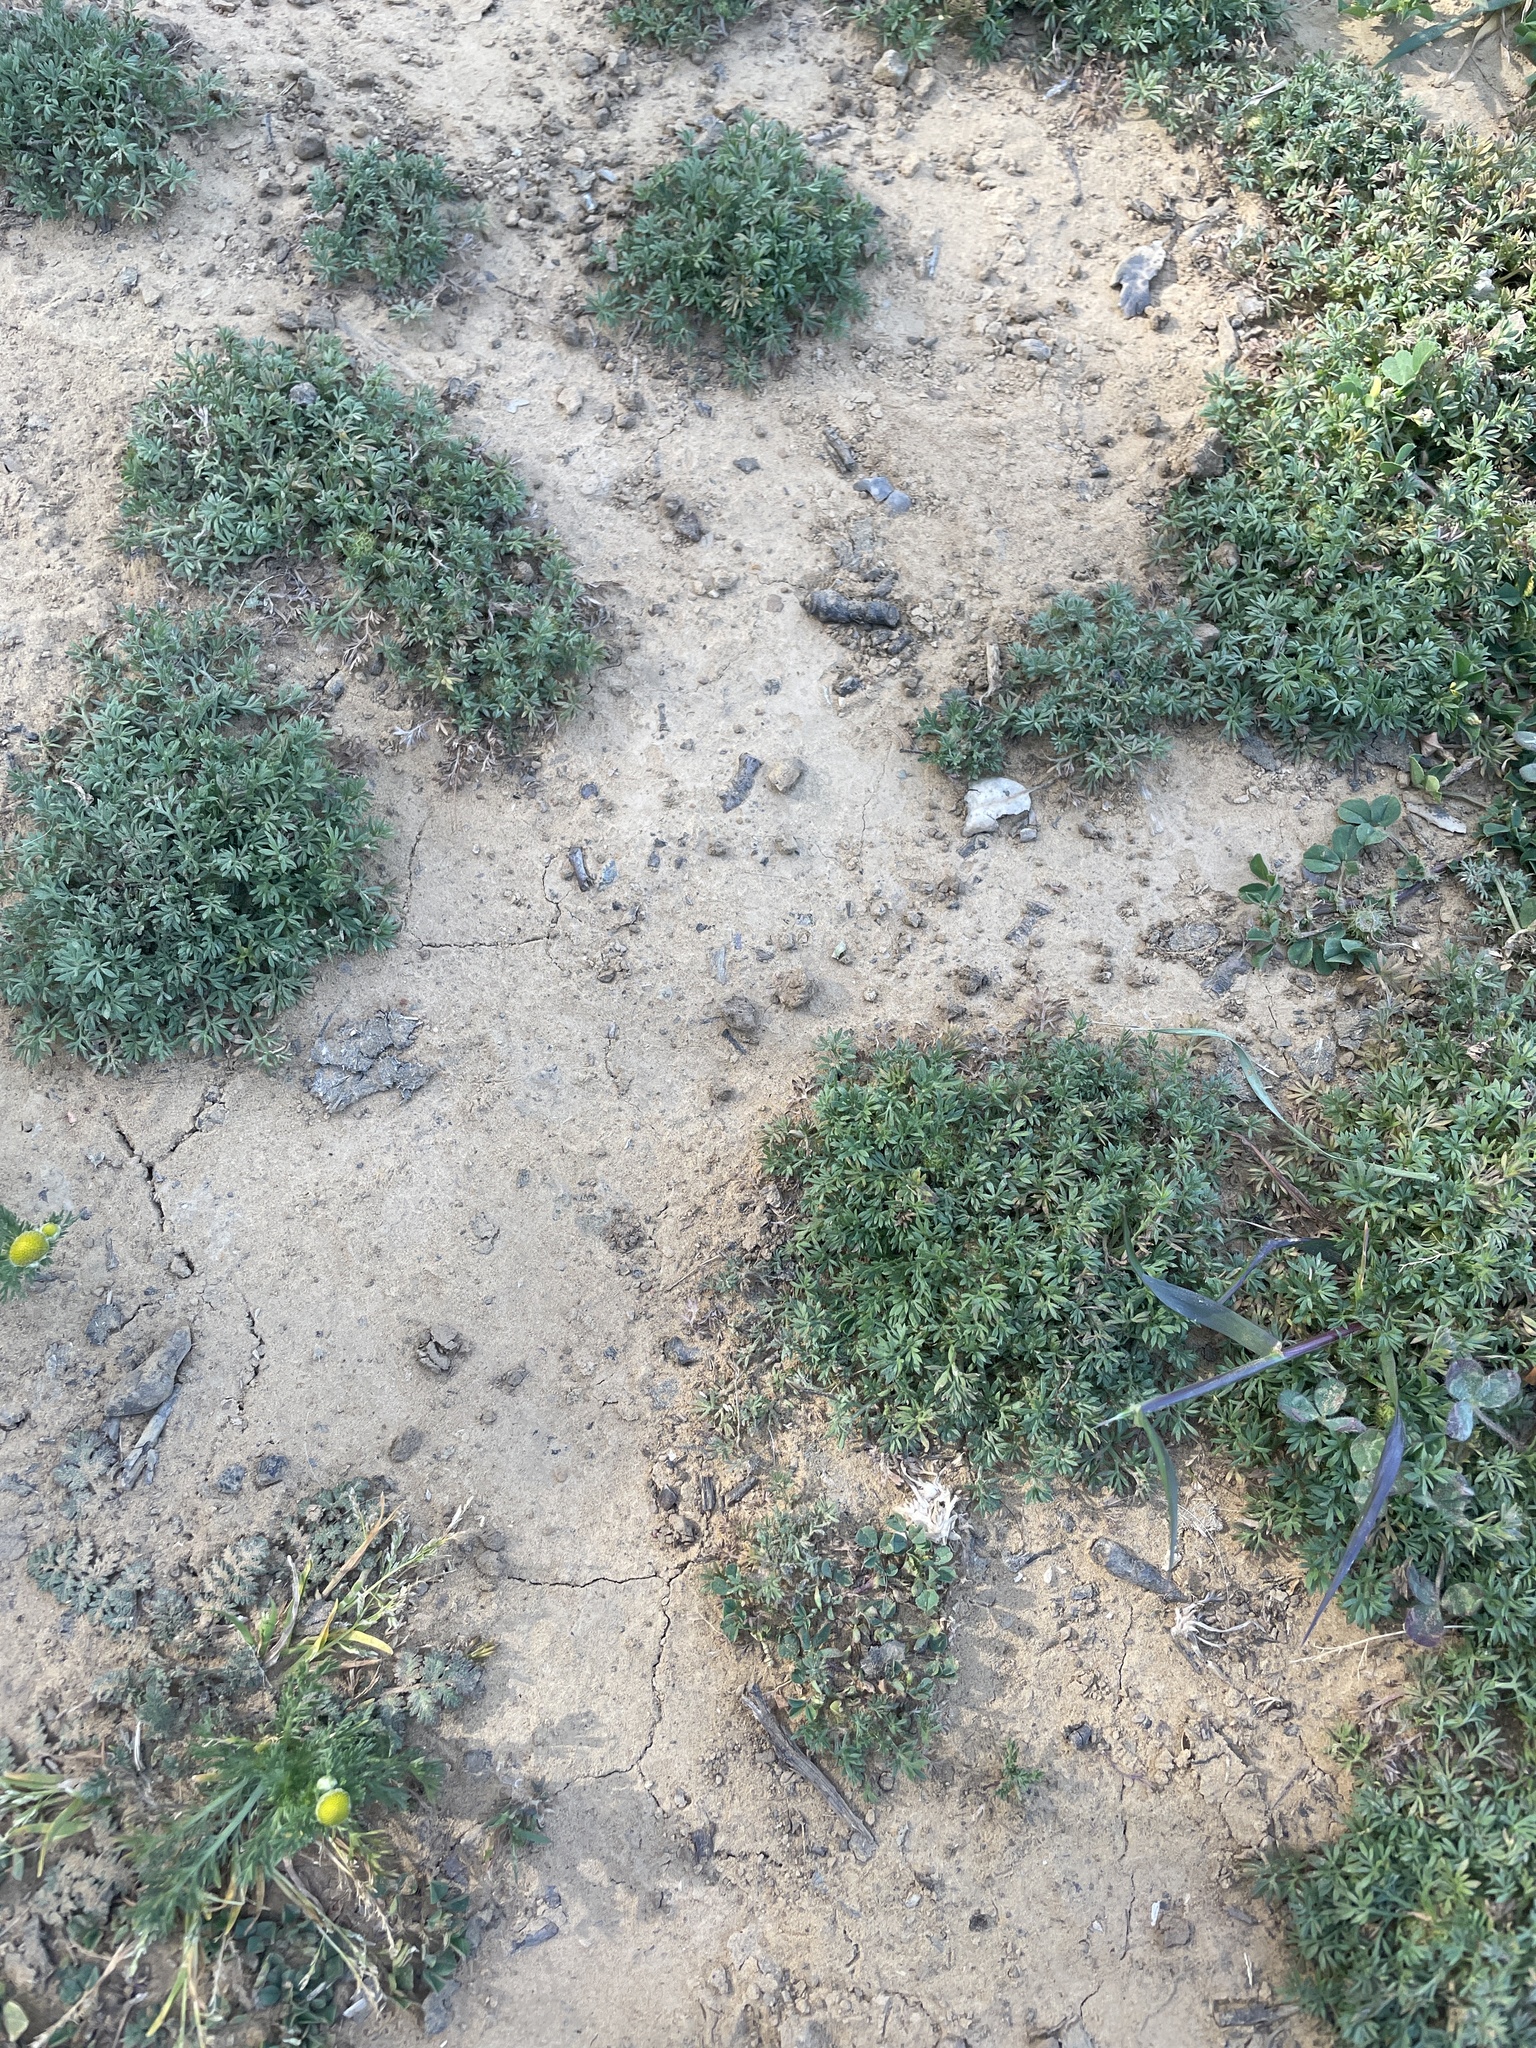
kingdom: Plantae
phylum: Tracheophyta
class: Magnoliopsida
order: Asterales
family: Asteraceae
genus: Soliva
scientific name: Soliva sessilis
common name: Field burrweed
